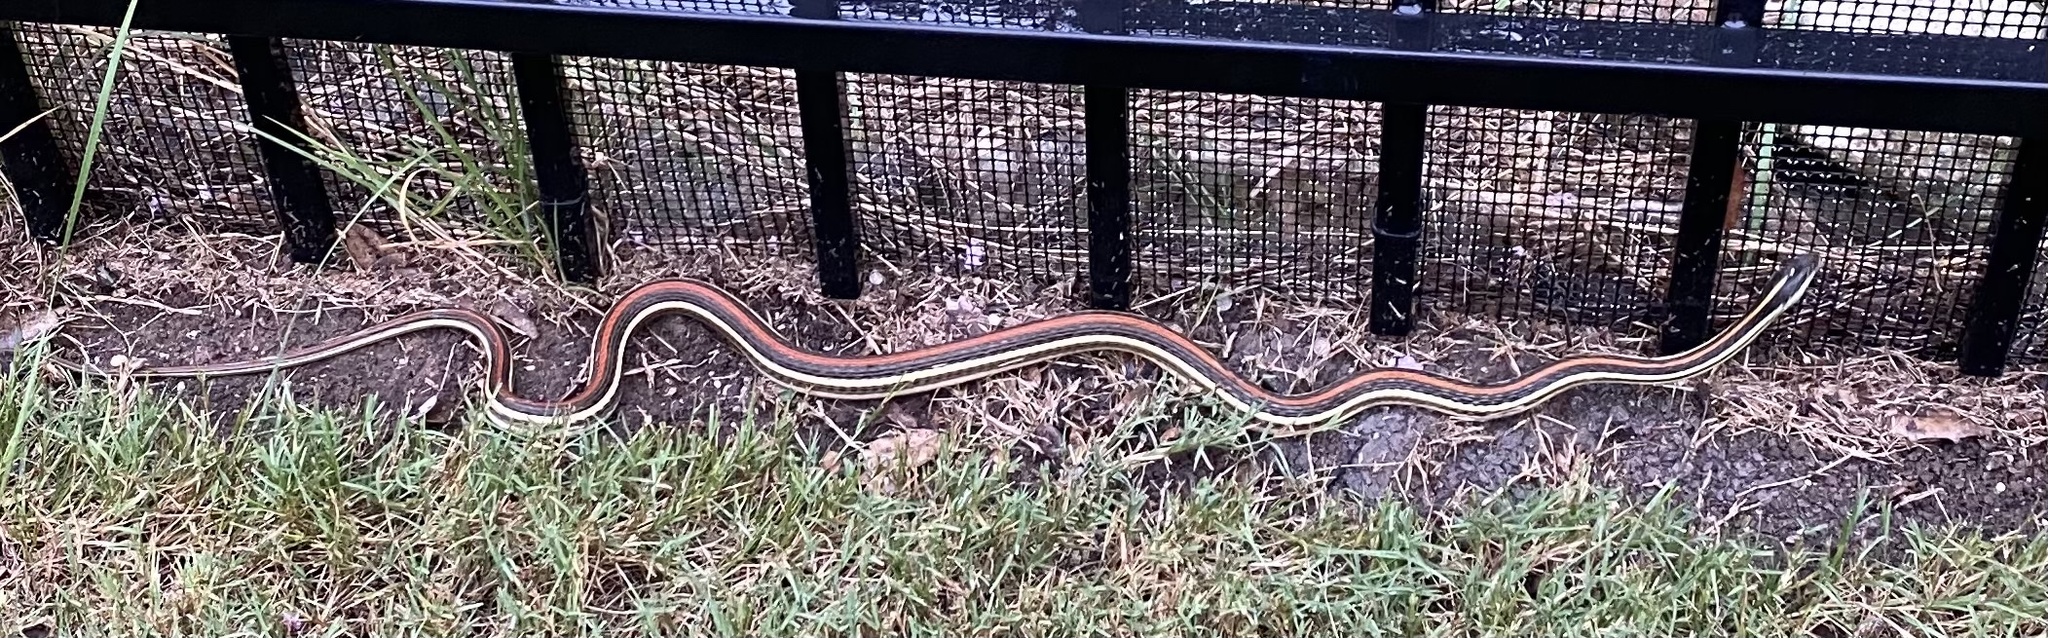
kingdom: Animalia
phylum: Chordata
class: Squamata
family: Colubridae
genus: Thamnophis
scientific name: Thamnophis proximus
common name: Western ribbon snake
